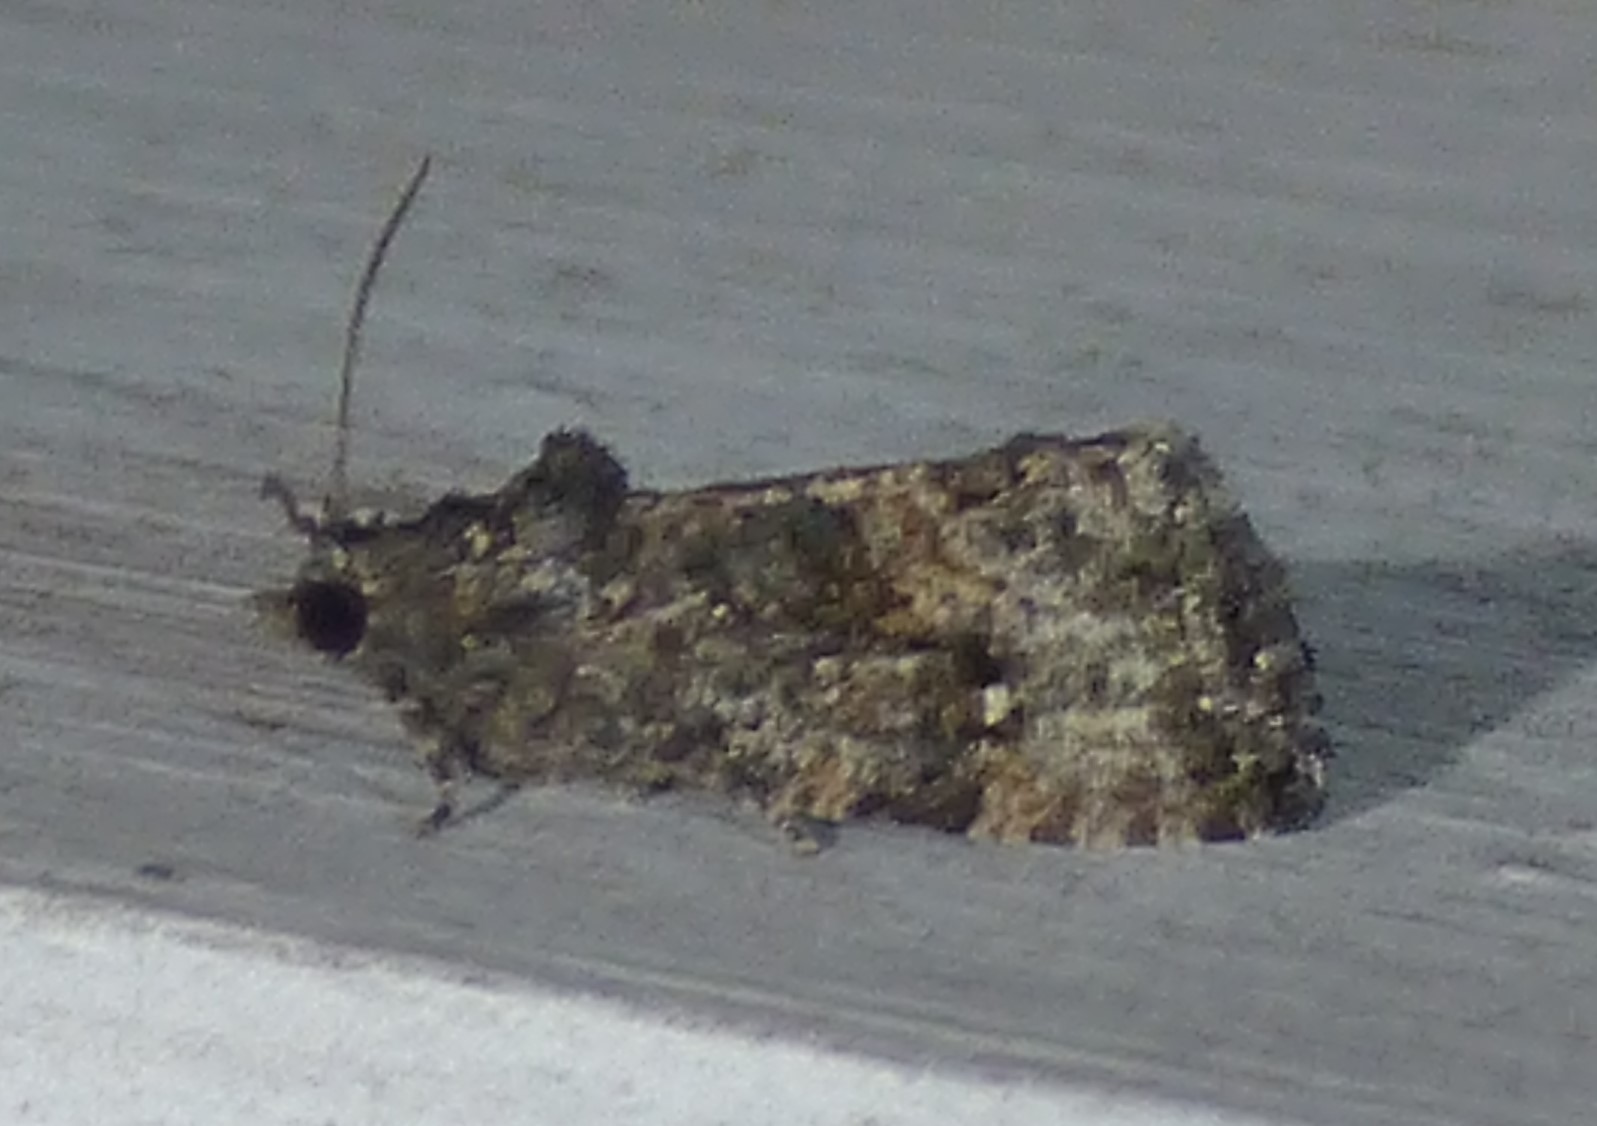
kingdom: Animalia
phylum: Arthropoda
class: Insecta
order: Lepidoptera
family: Tortricidae
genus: Gymnandrosoma
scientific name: Gymnandrosoma punctidiscanum
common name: Dotted ecdytolopha moth
